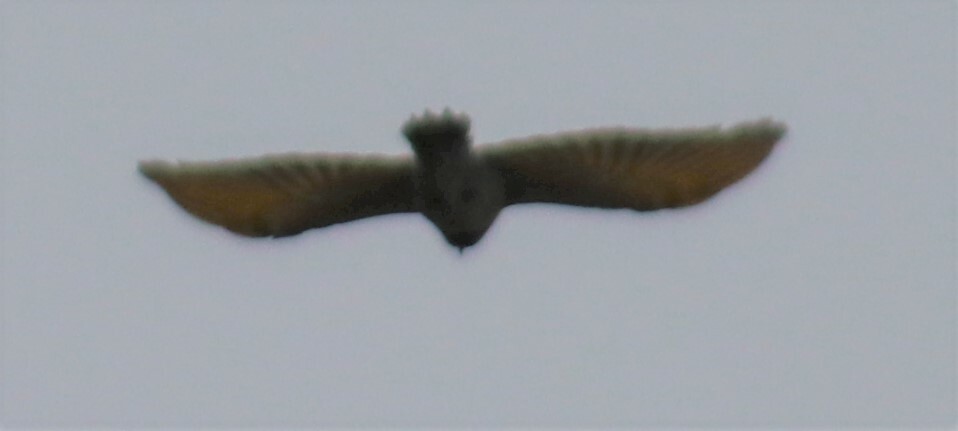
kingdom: Animalia
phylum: Chordata
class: Aves
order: Piciformes
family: Picidae
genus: Colaptes
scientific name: Colaptes auratus
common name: Northern flicker
